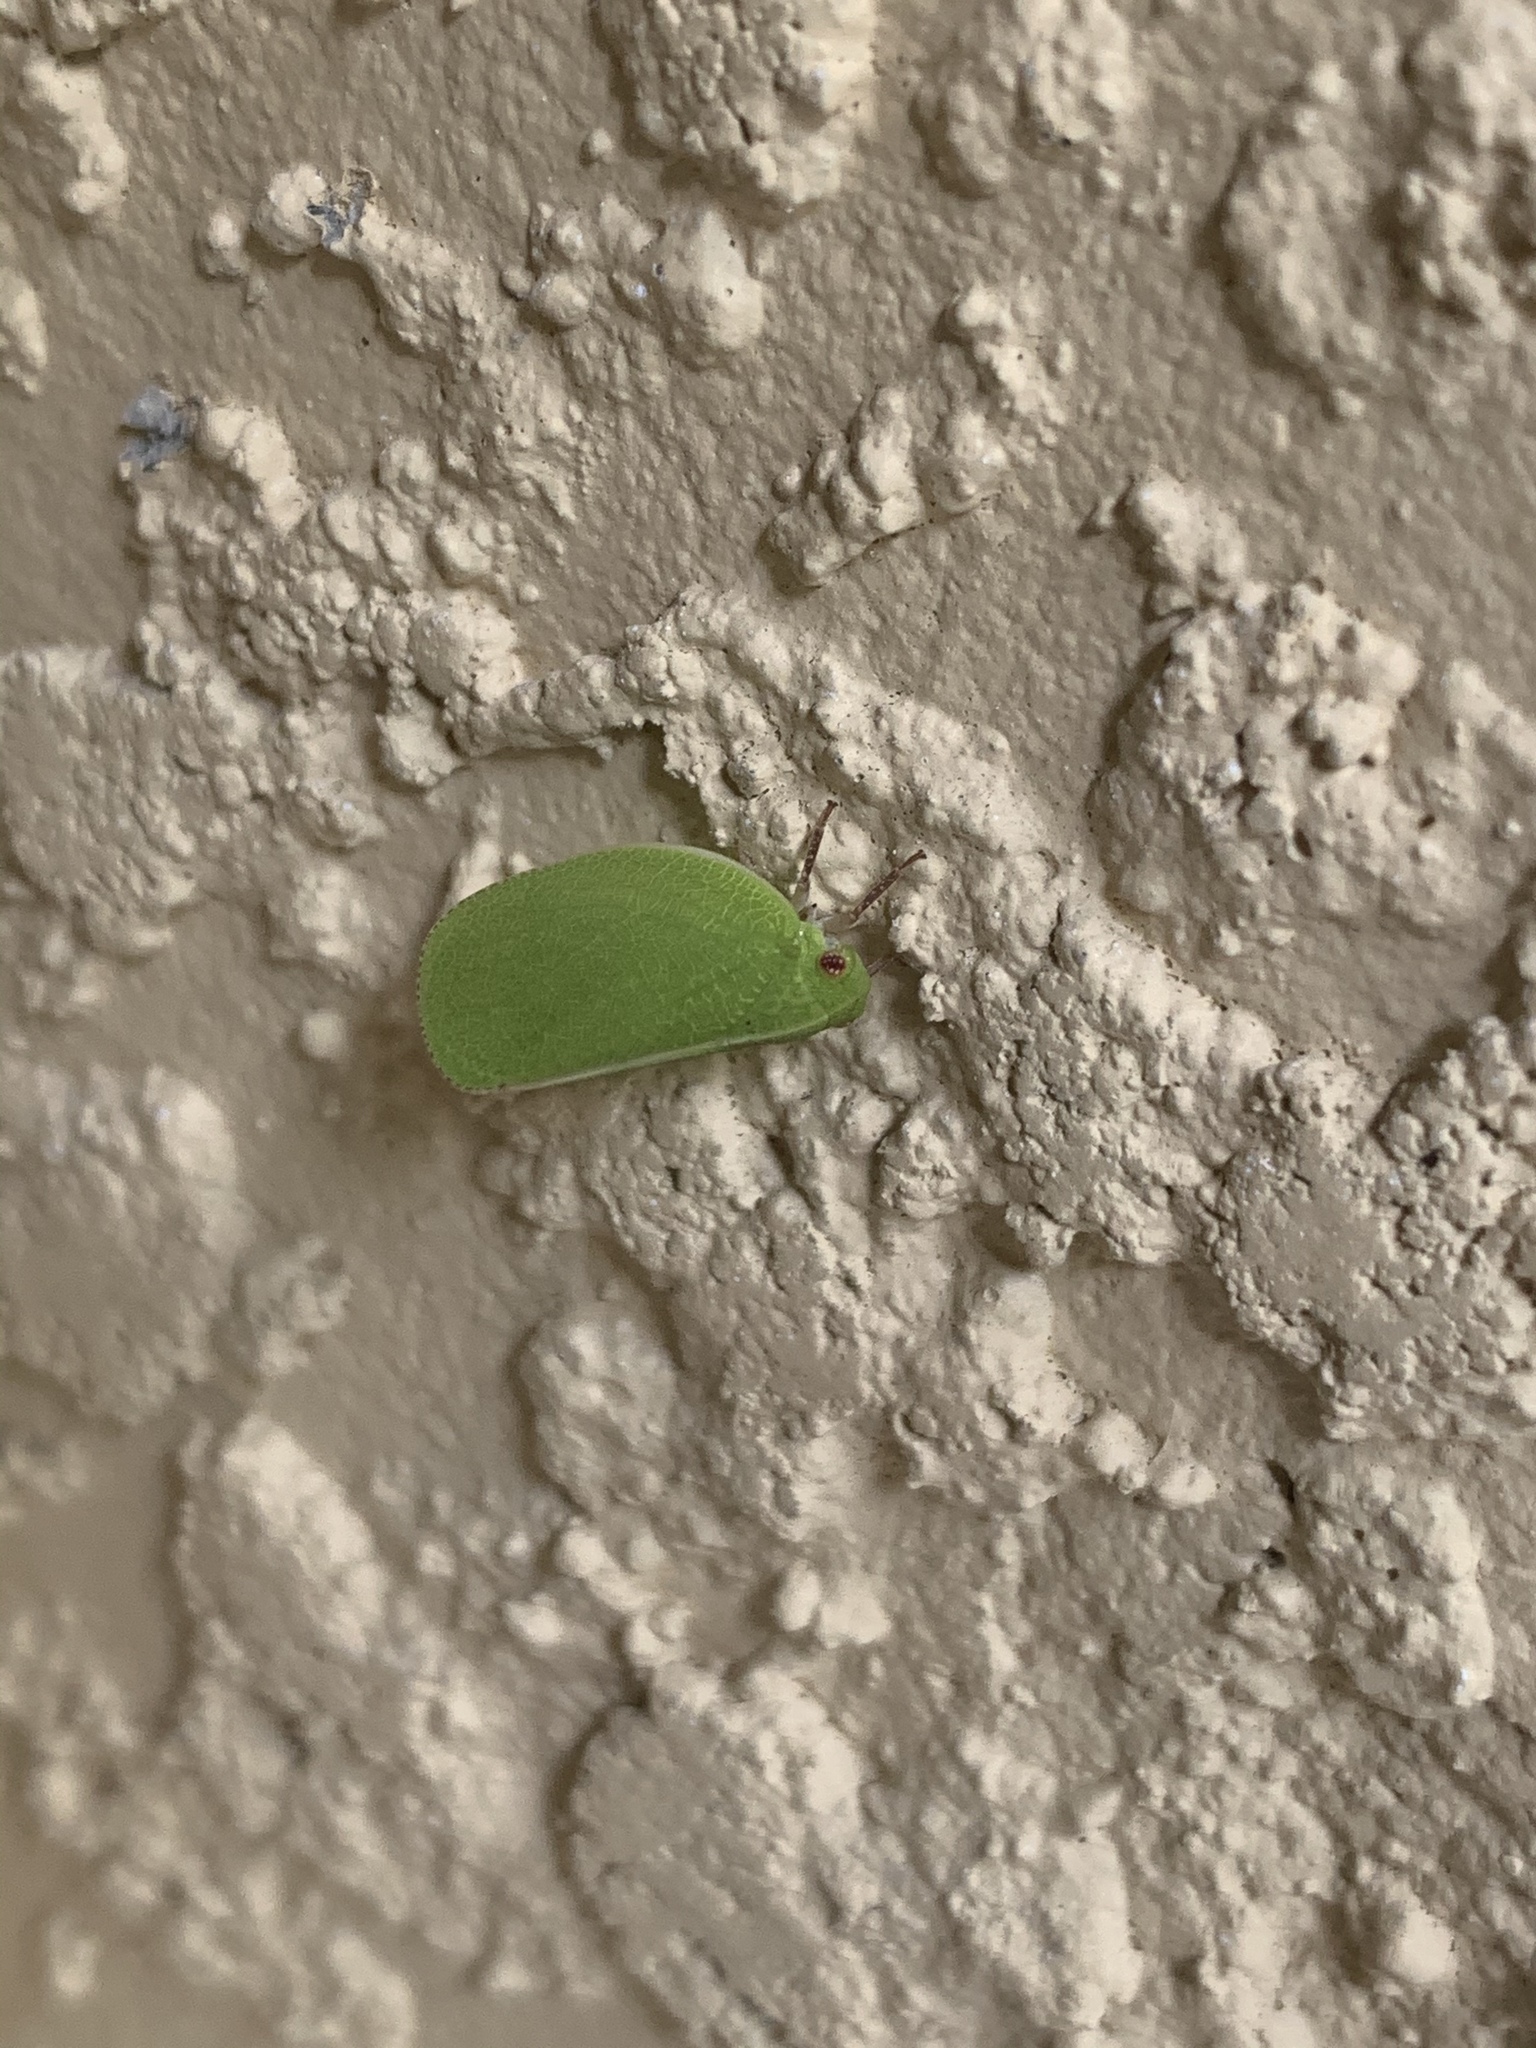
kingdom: Animalia
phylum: Arthropoda
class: Insecta
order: Hemiptera
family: Acanaloniidae
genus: Acanalonia
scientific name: Acanalonia servillei
